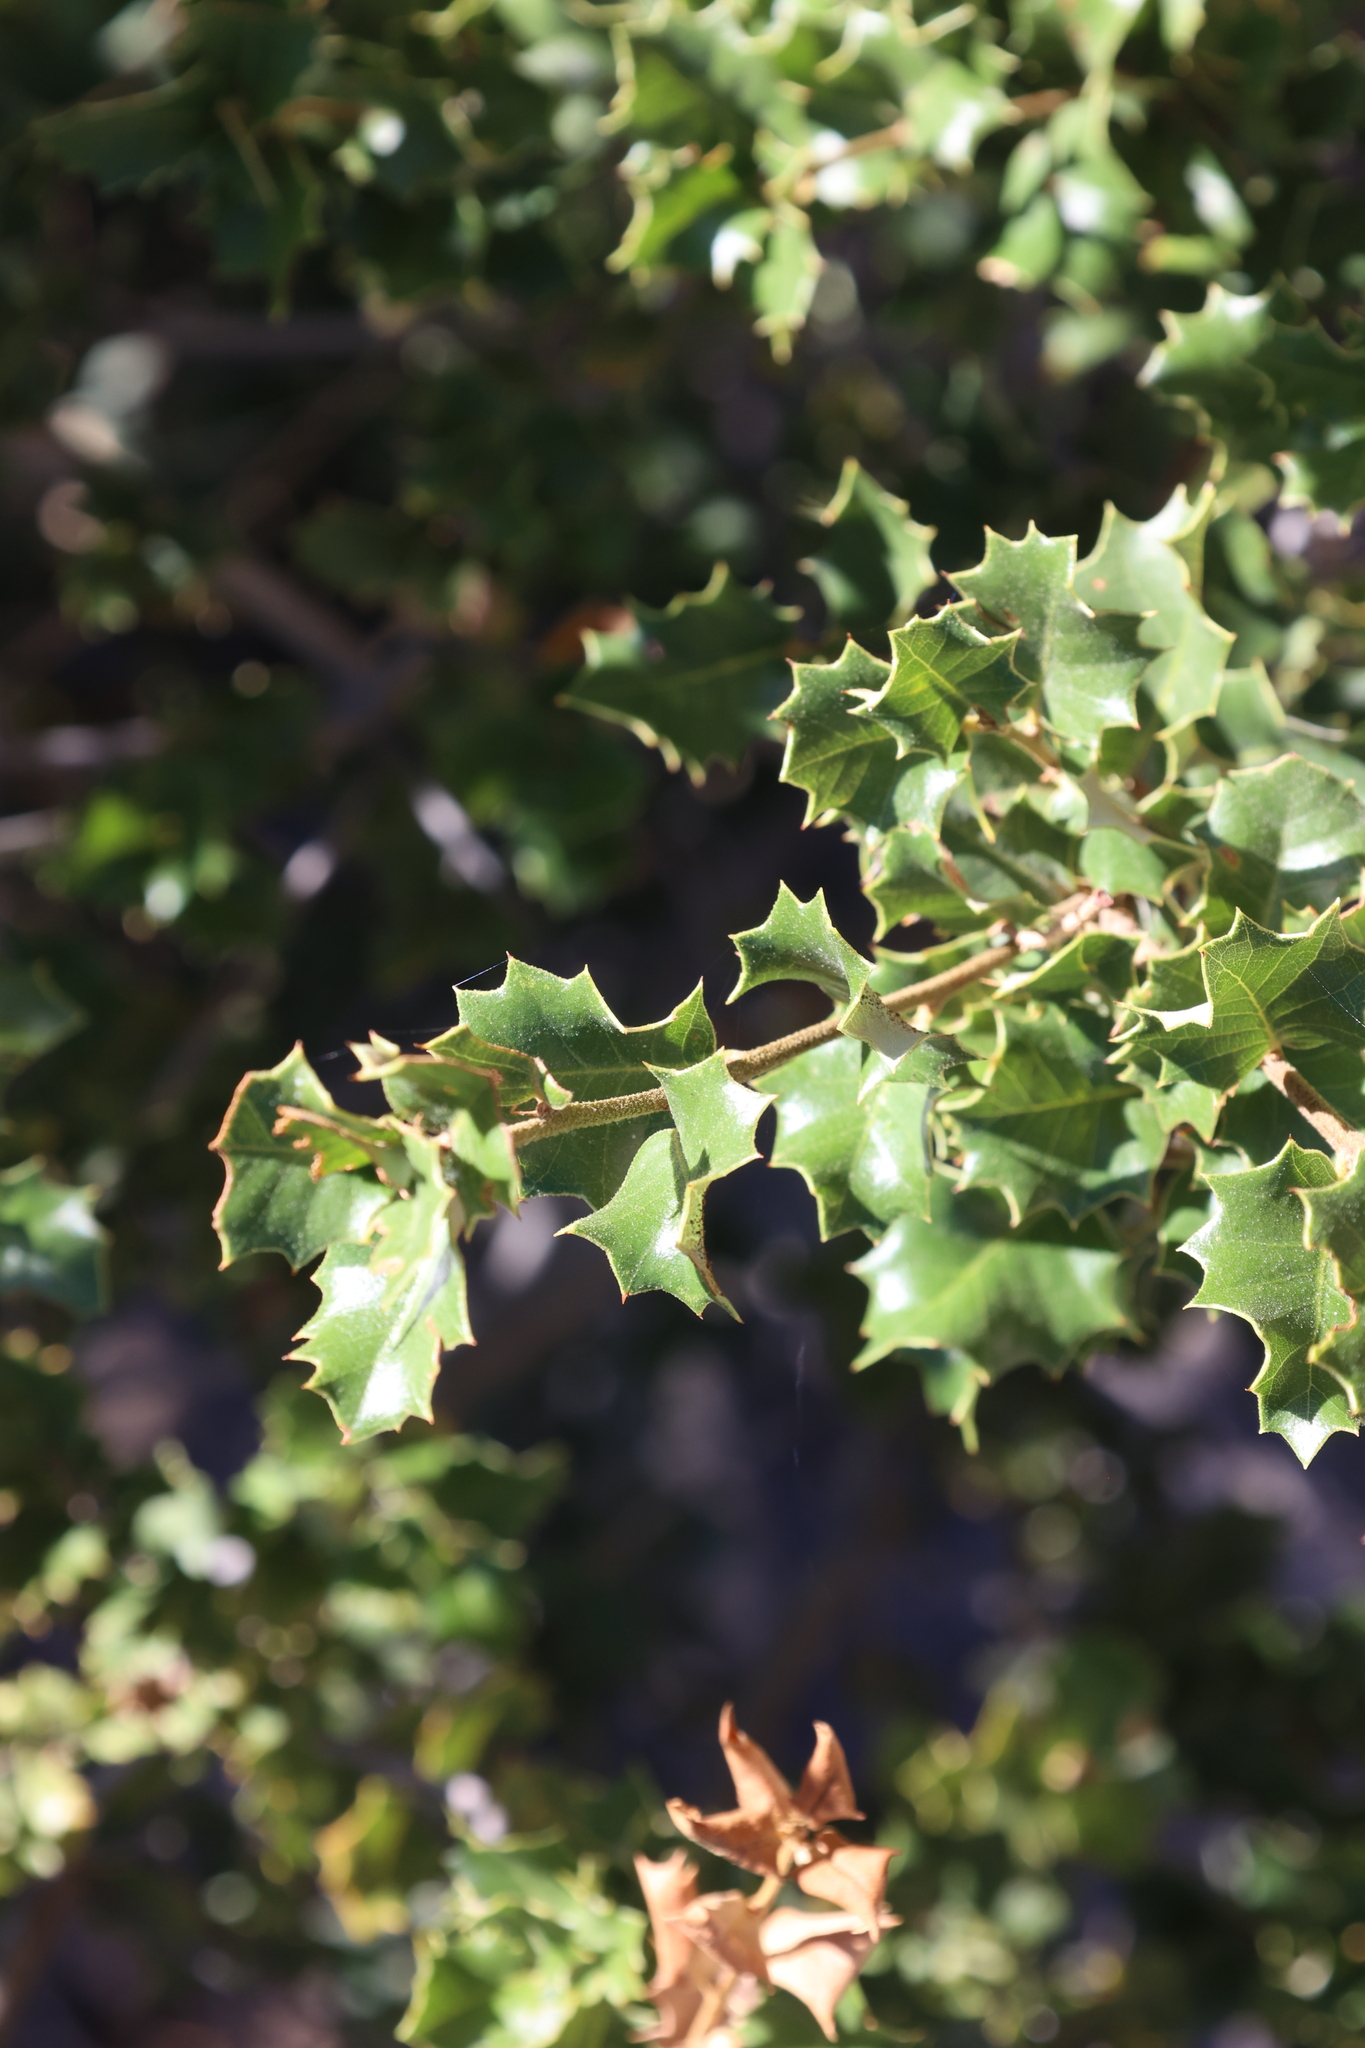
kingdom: Plantae
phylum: Tracheophyta
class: Magnoliopsida
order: Fagales
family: Fagaceae
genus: Quercus
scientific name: Quercus chrysolepis
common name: Canyon live oak
